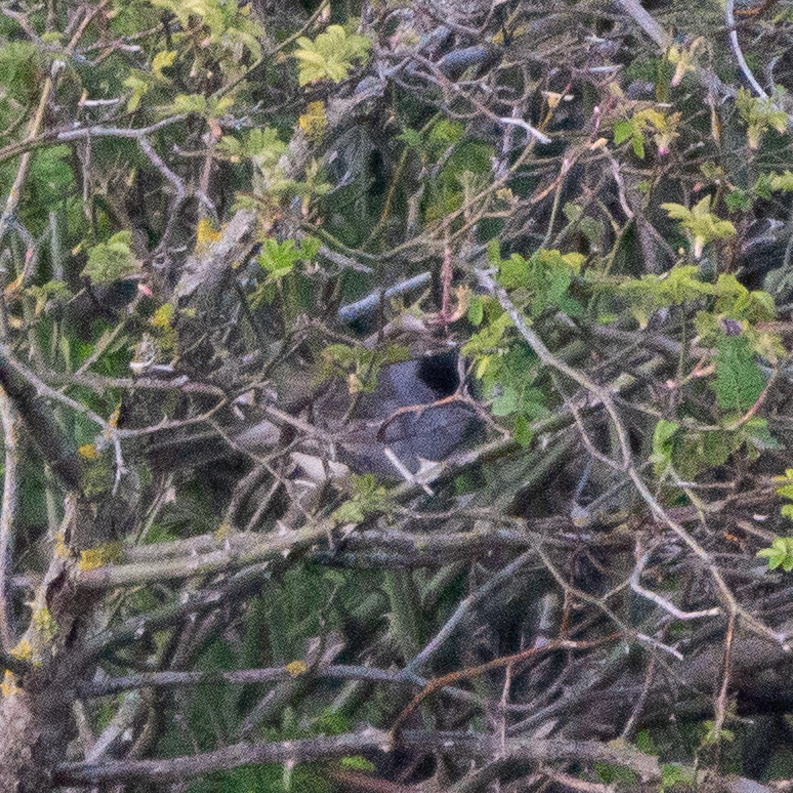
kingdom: Animalia
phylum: Chordata
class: Aves
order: Passeriformes
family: Sylviidae
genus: Sylvia
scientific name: Sylvia atricapilla
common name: Eurasian blackcap
